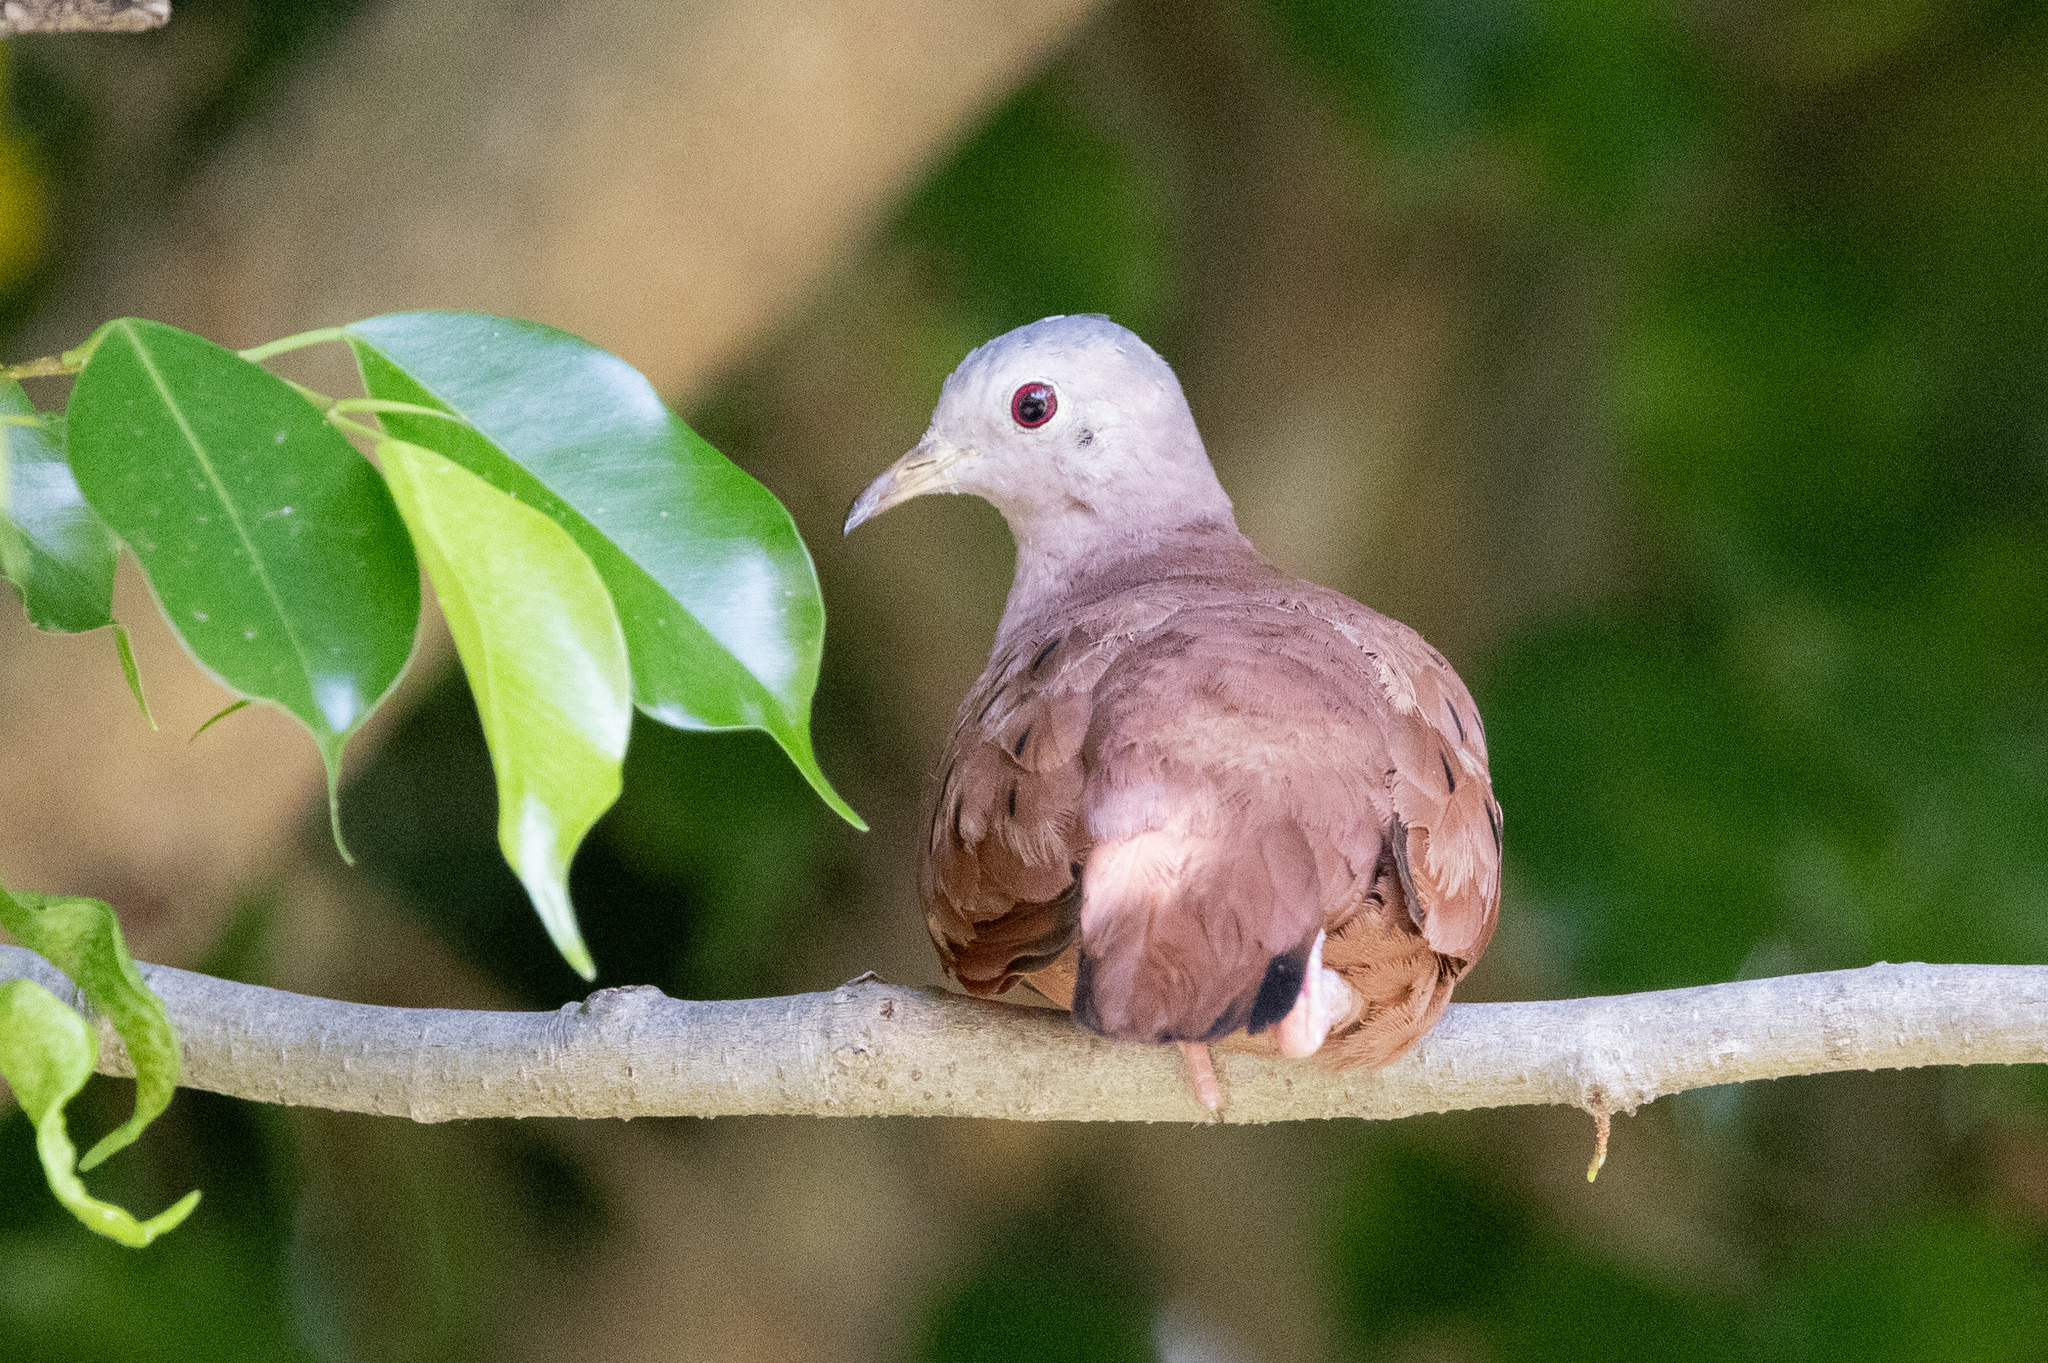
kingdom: Animalia
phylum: Chordata
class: Aves
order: Columbiformes
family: Columbidae
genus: Columbina
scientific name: Columbina talpacoti
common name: Ruddy ground dove
